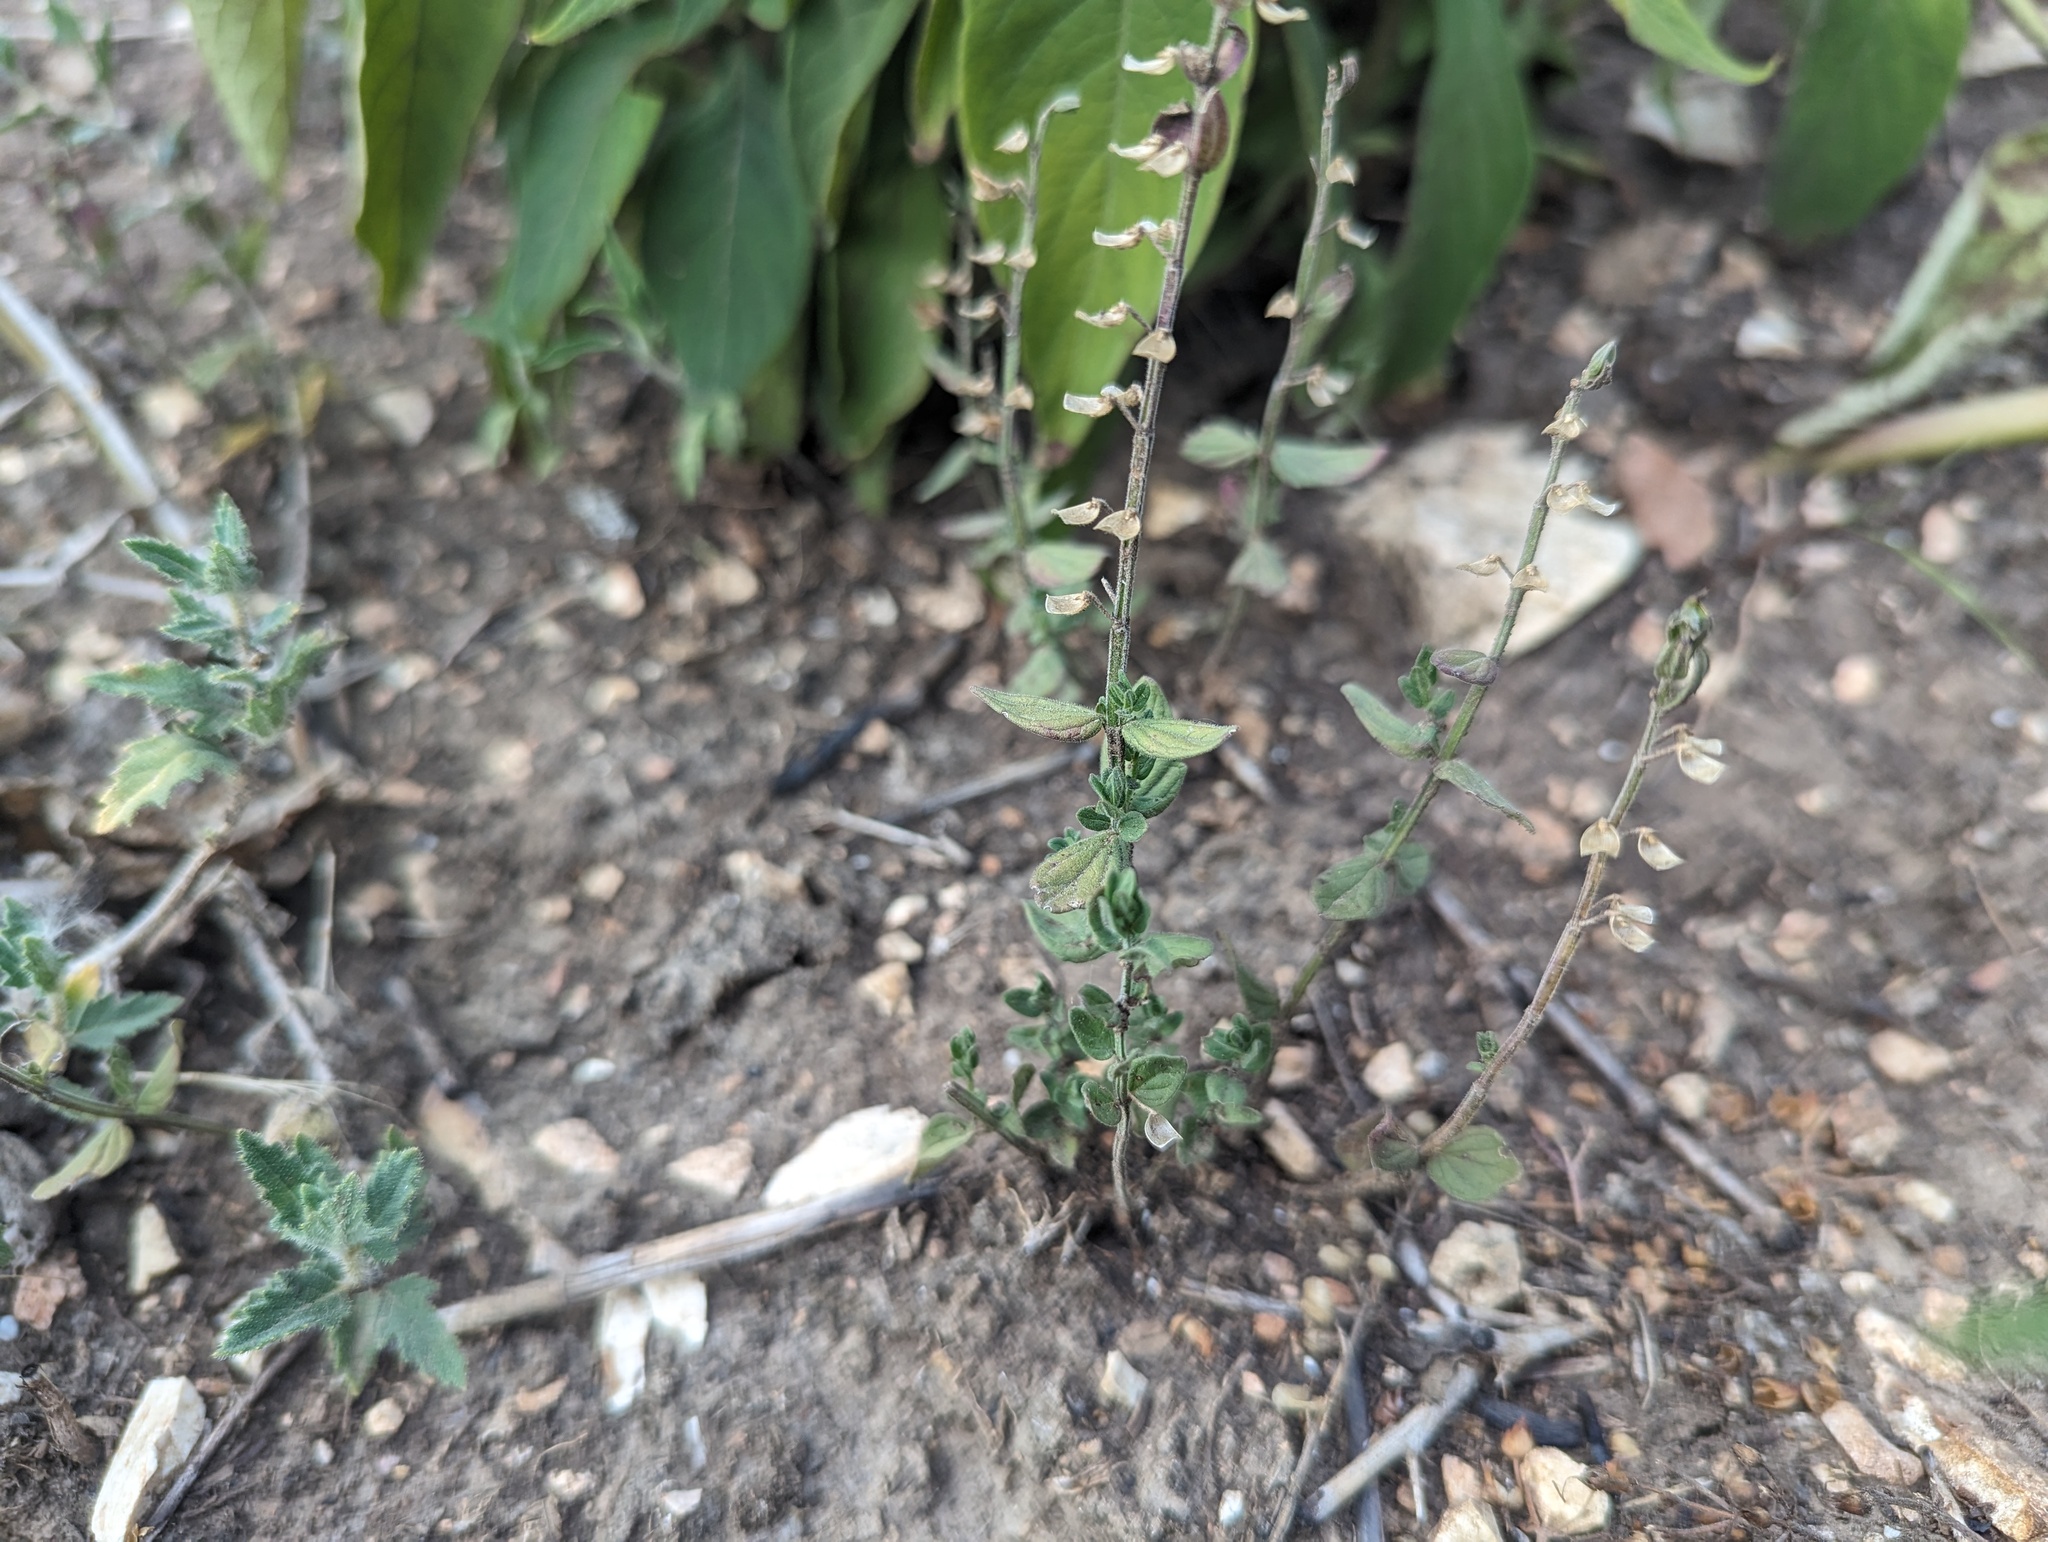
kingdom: Plantae
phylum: Tracheophyta
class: Magnoliopsida
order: Lamiales
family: Lamiaceae
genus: Scutellaria
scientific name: Scutellaria parvula
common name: Little scullcap
